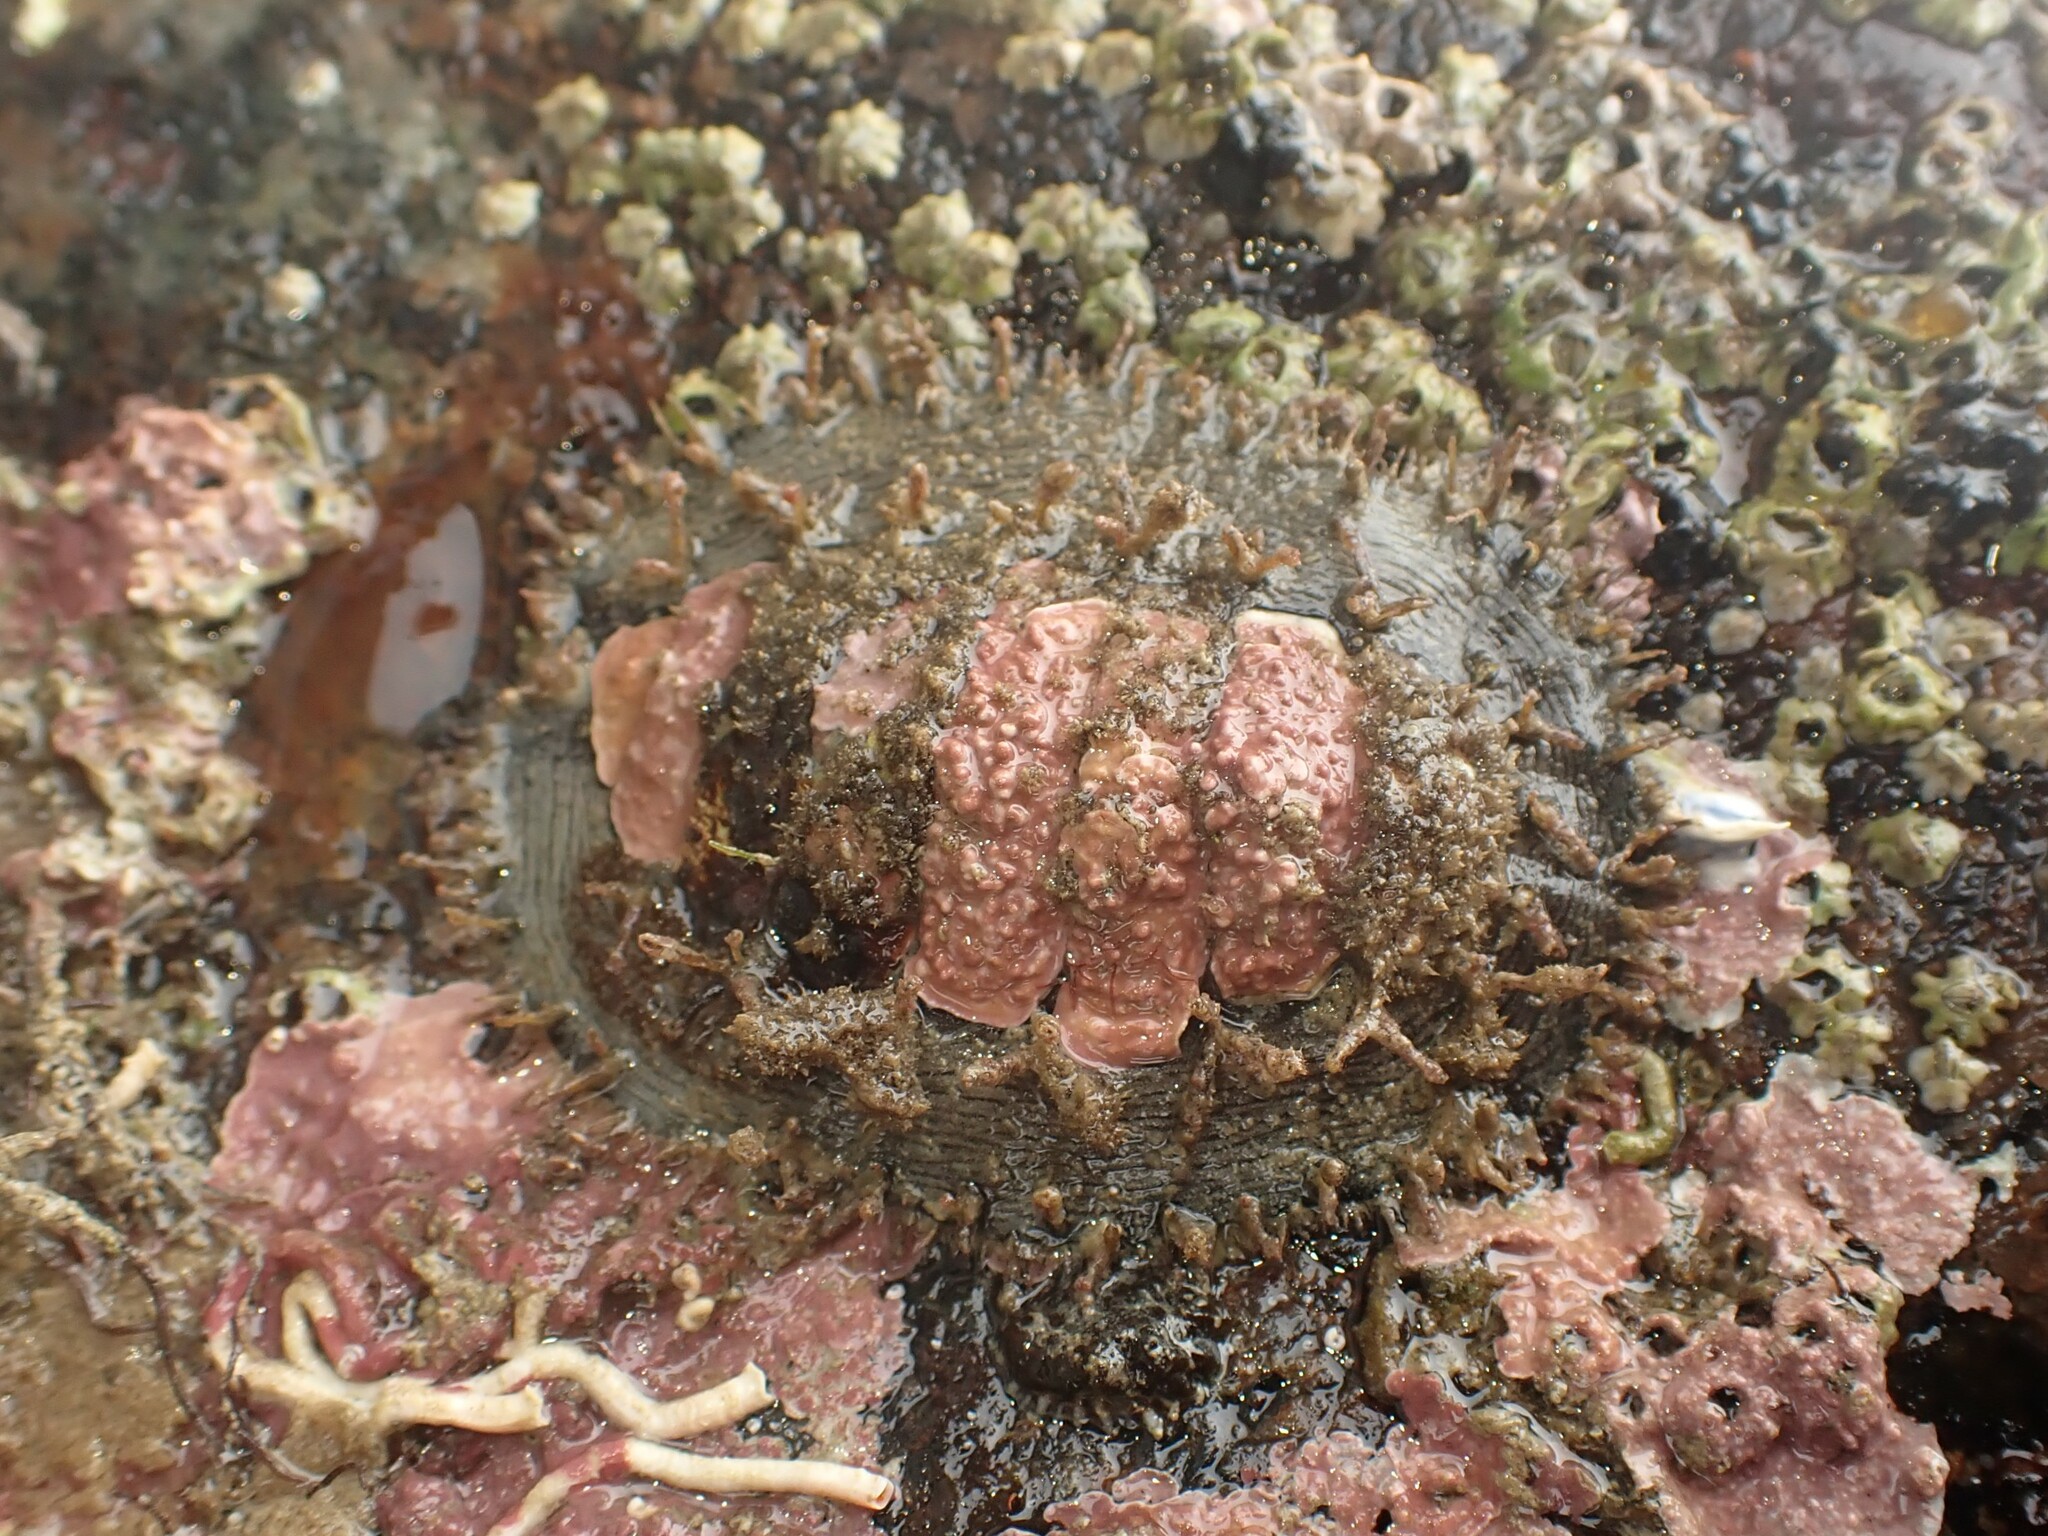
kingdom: Animalia
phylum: Mollusca
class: Polyplacophora
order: Chitonida
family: Mopaliidae
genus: Plaxiphora
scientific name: Plaxiphora biramosa
